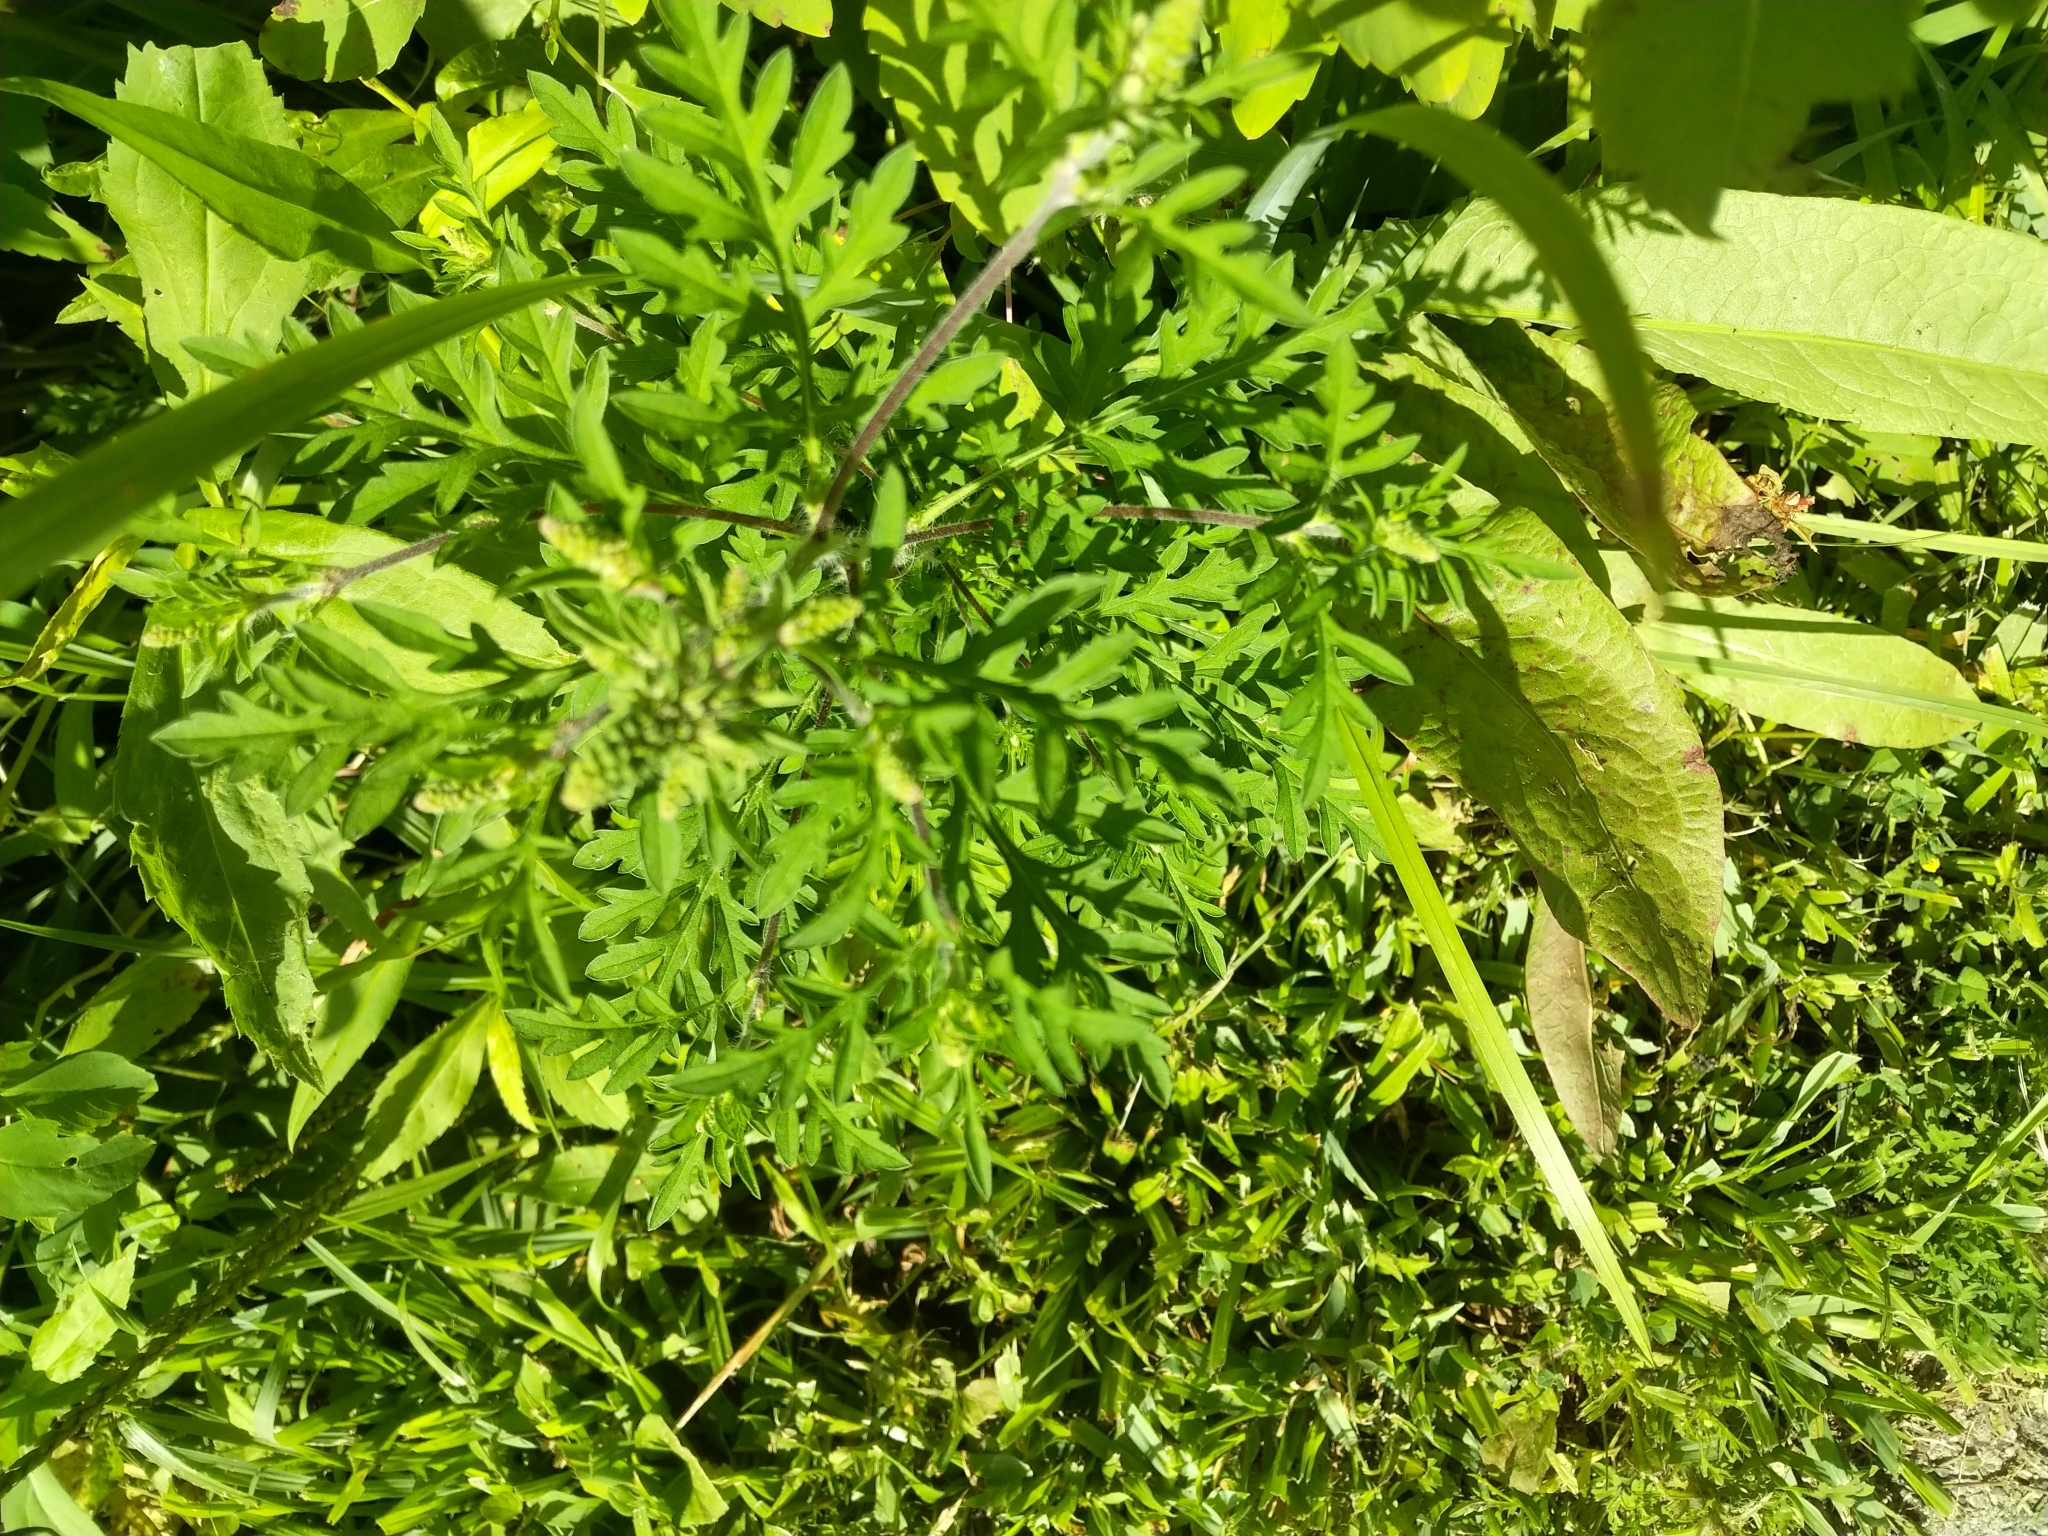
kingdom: Plantae
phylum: Tracheophyta
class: Magnoliopsida
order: Asterales
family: Asteraceae
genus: Ambrosia
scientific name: Ambrosia artemisiifolia
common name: Annual ragweed
